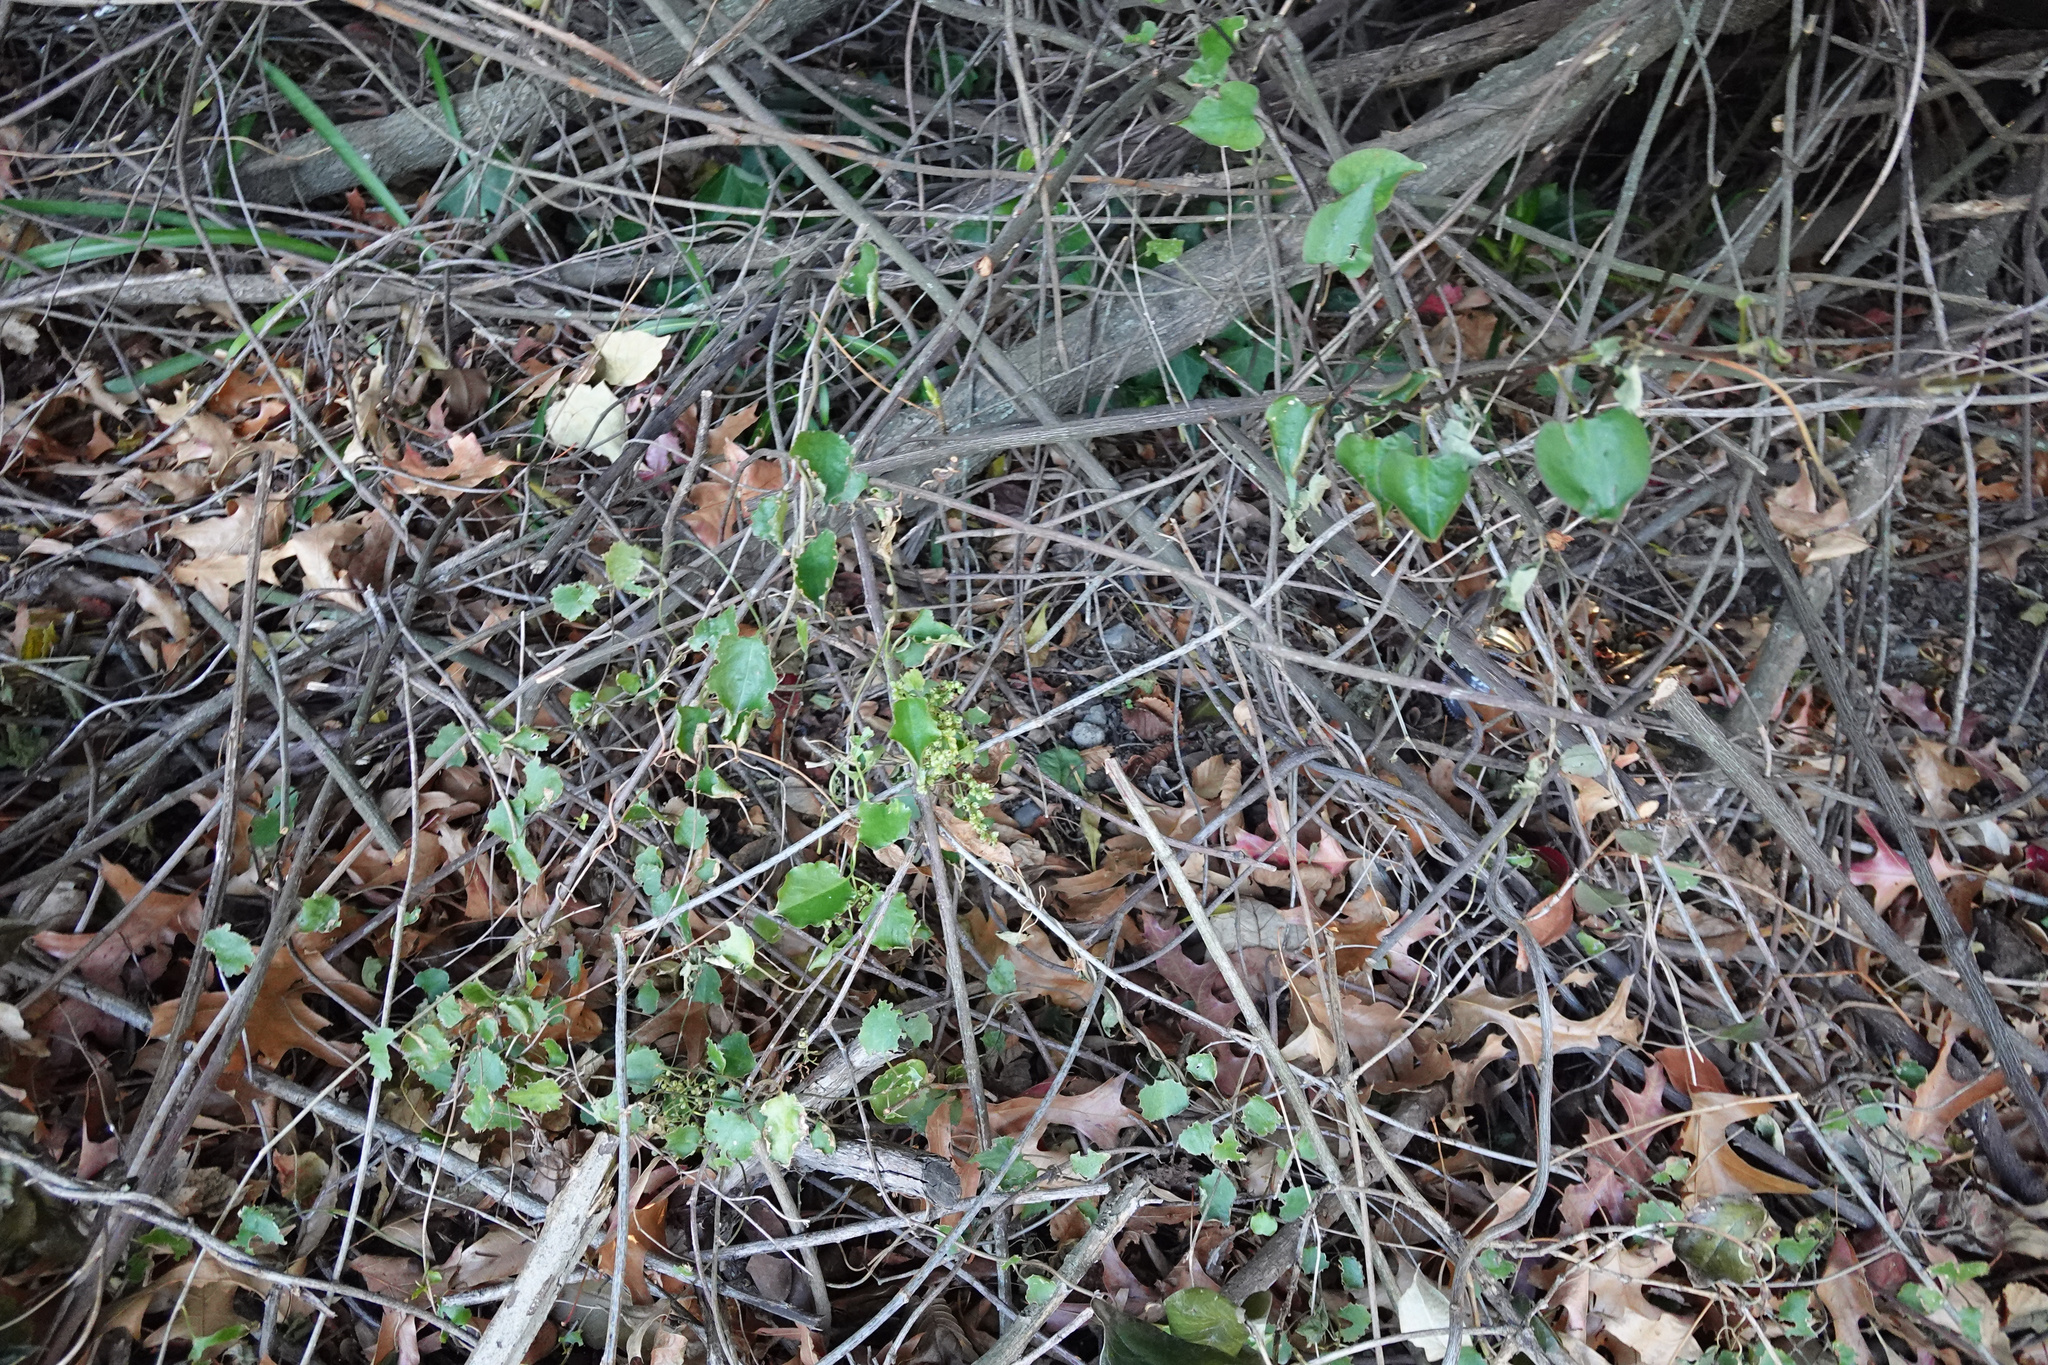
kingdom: Plantae
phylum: Tracheophyta
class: Magnoliopsida
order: Caryophyllales
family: Polygonaceae
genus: Muehlenbeckia
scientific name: Muehlenbeckia australis
